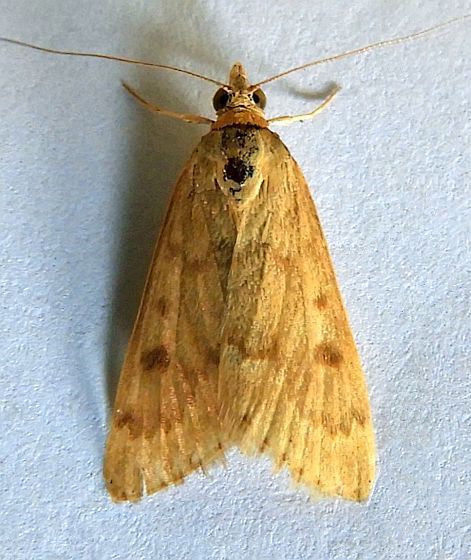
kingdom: Animalia
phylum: Arthropoda
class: Insecta
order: Lepidoptera
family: Crambidae
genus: Achyra
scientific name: Achyra rantalis
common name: Garden webworm
